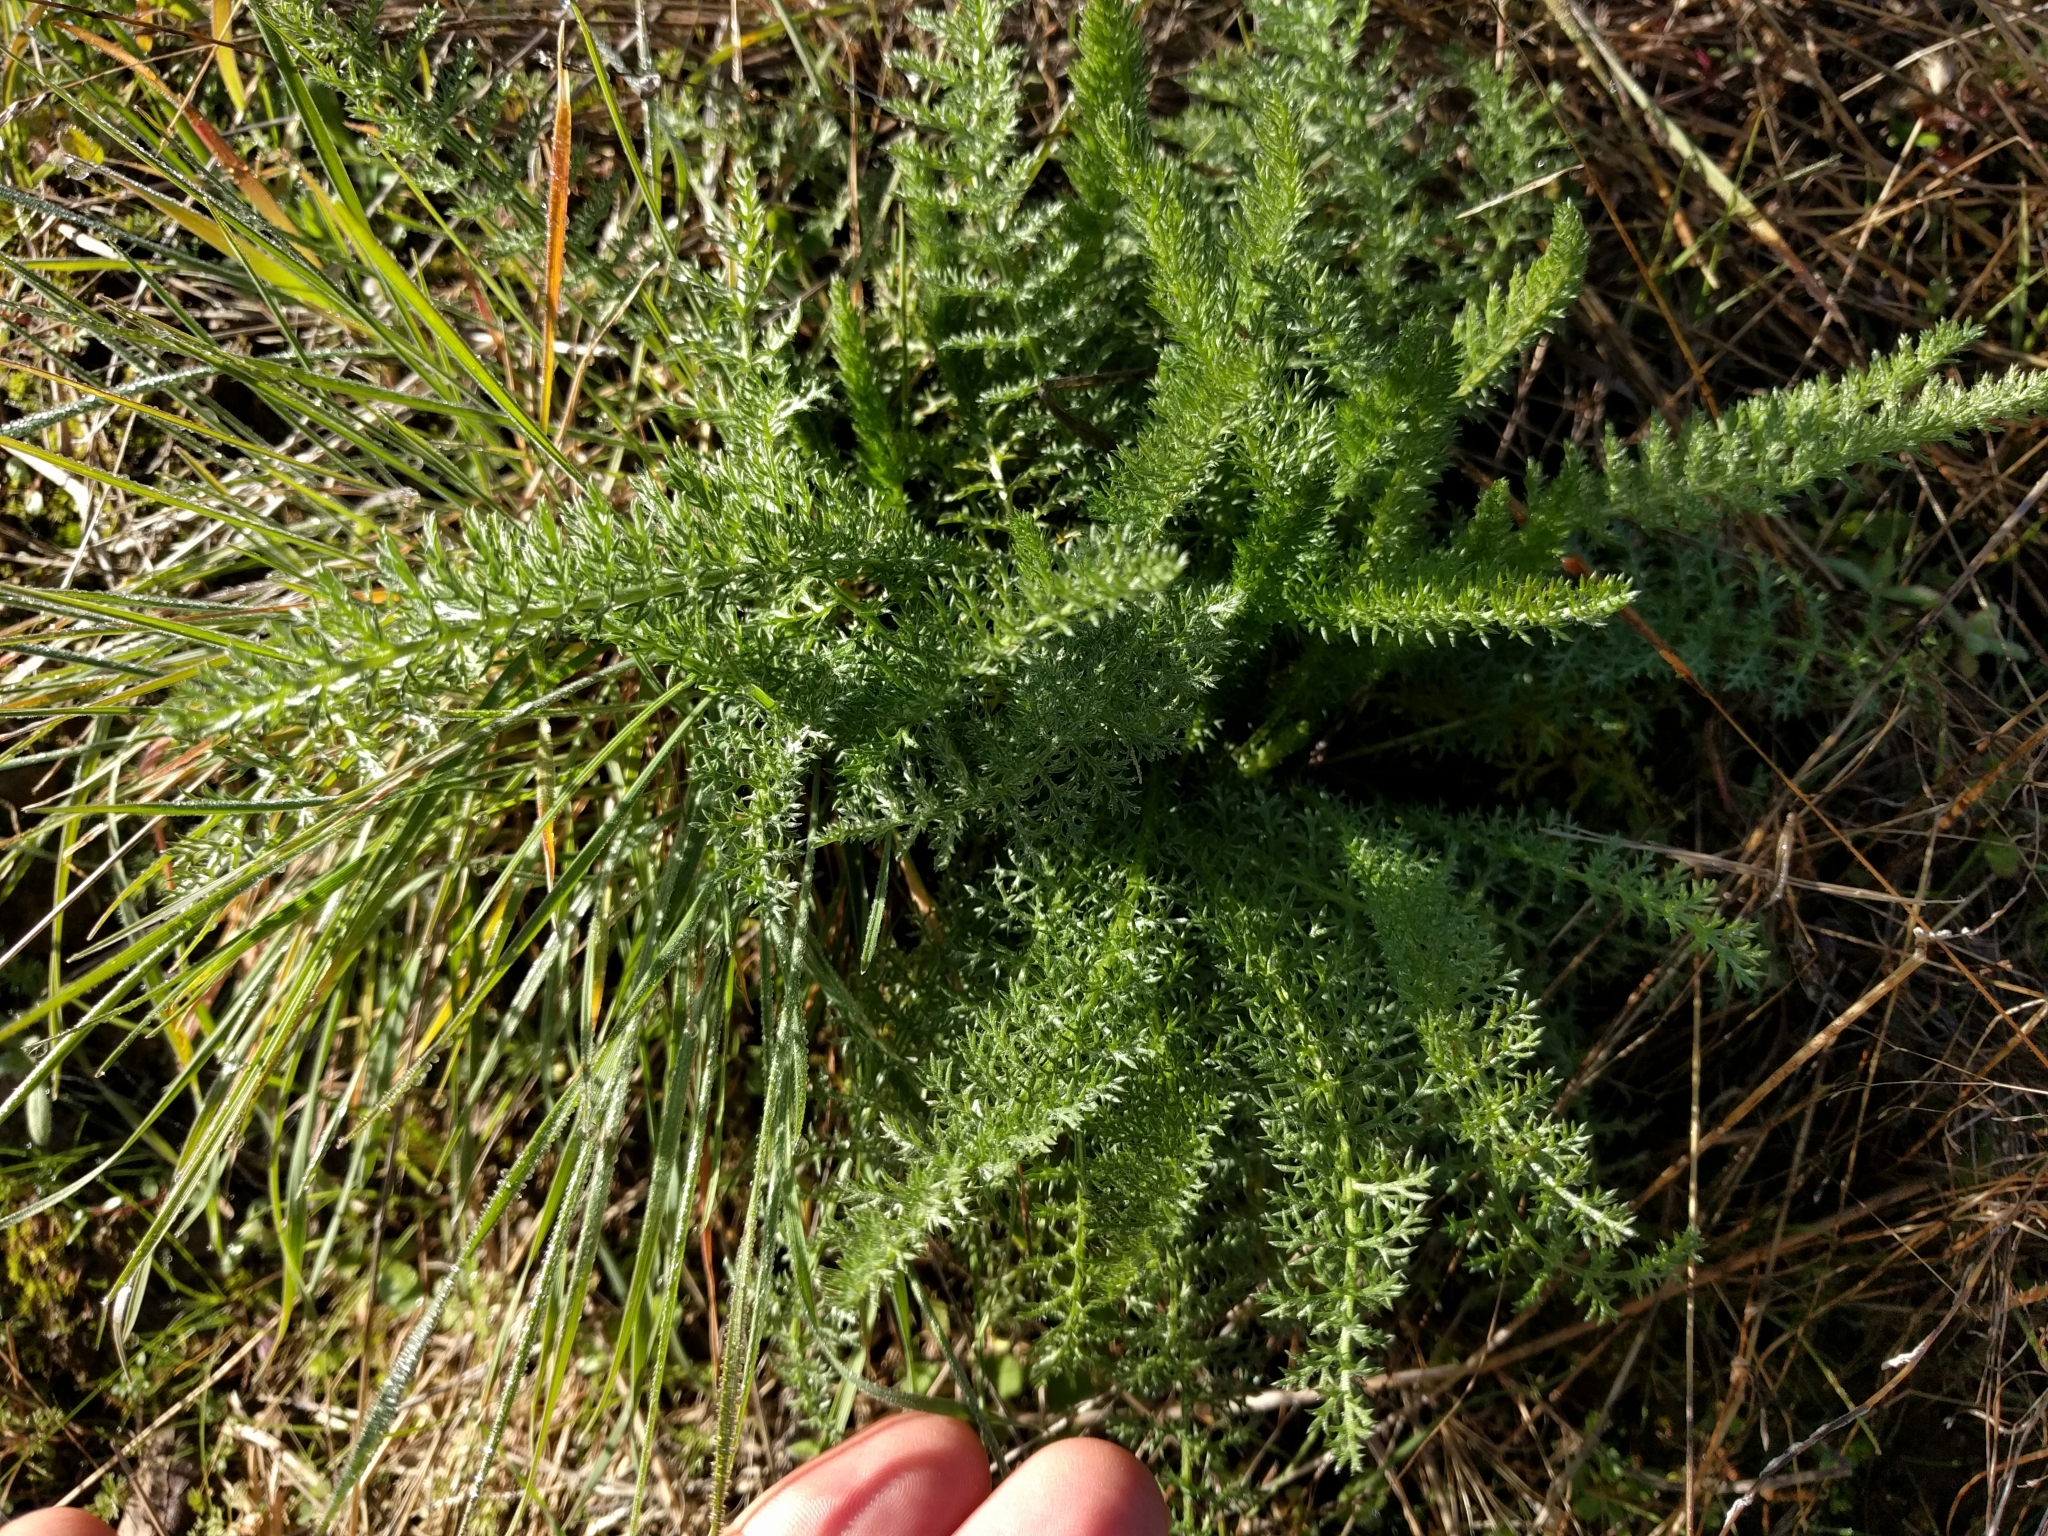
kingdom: Plantae
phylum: Tracheophyta
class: Magnoliopsida
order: Asterales
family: Asteraceae
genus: Achillea
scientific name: Achillea millefolium
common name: Yarrow
